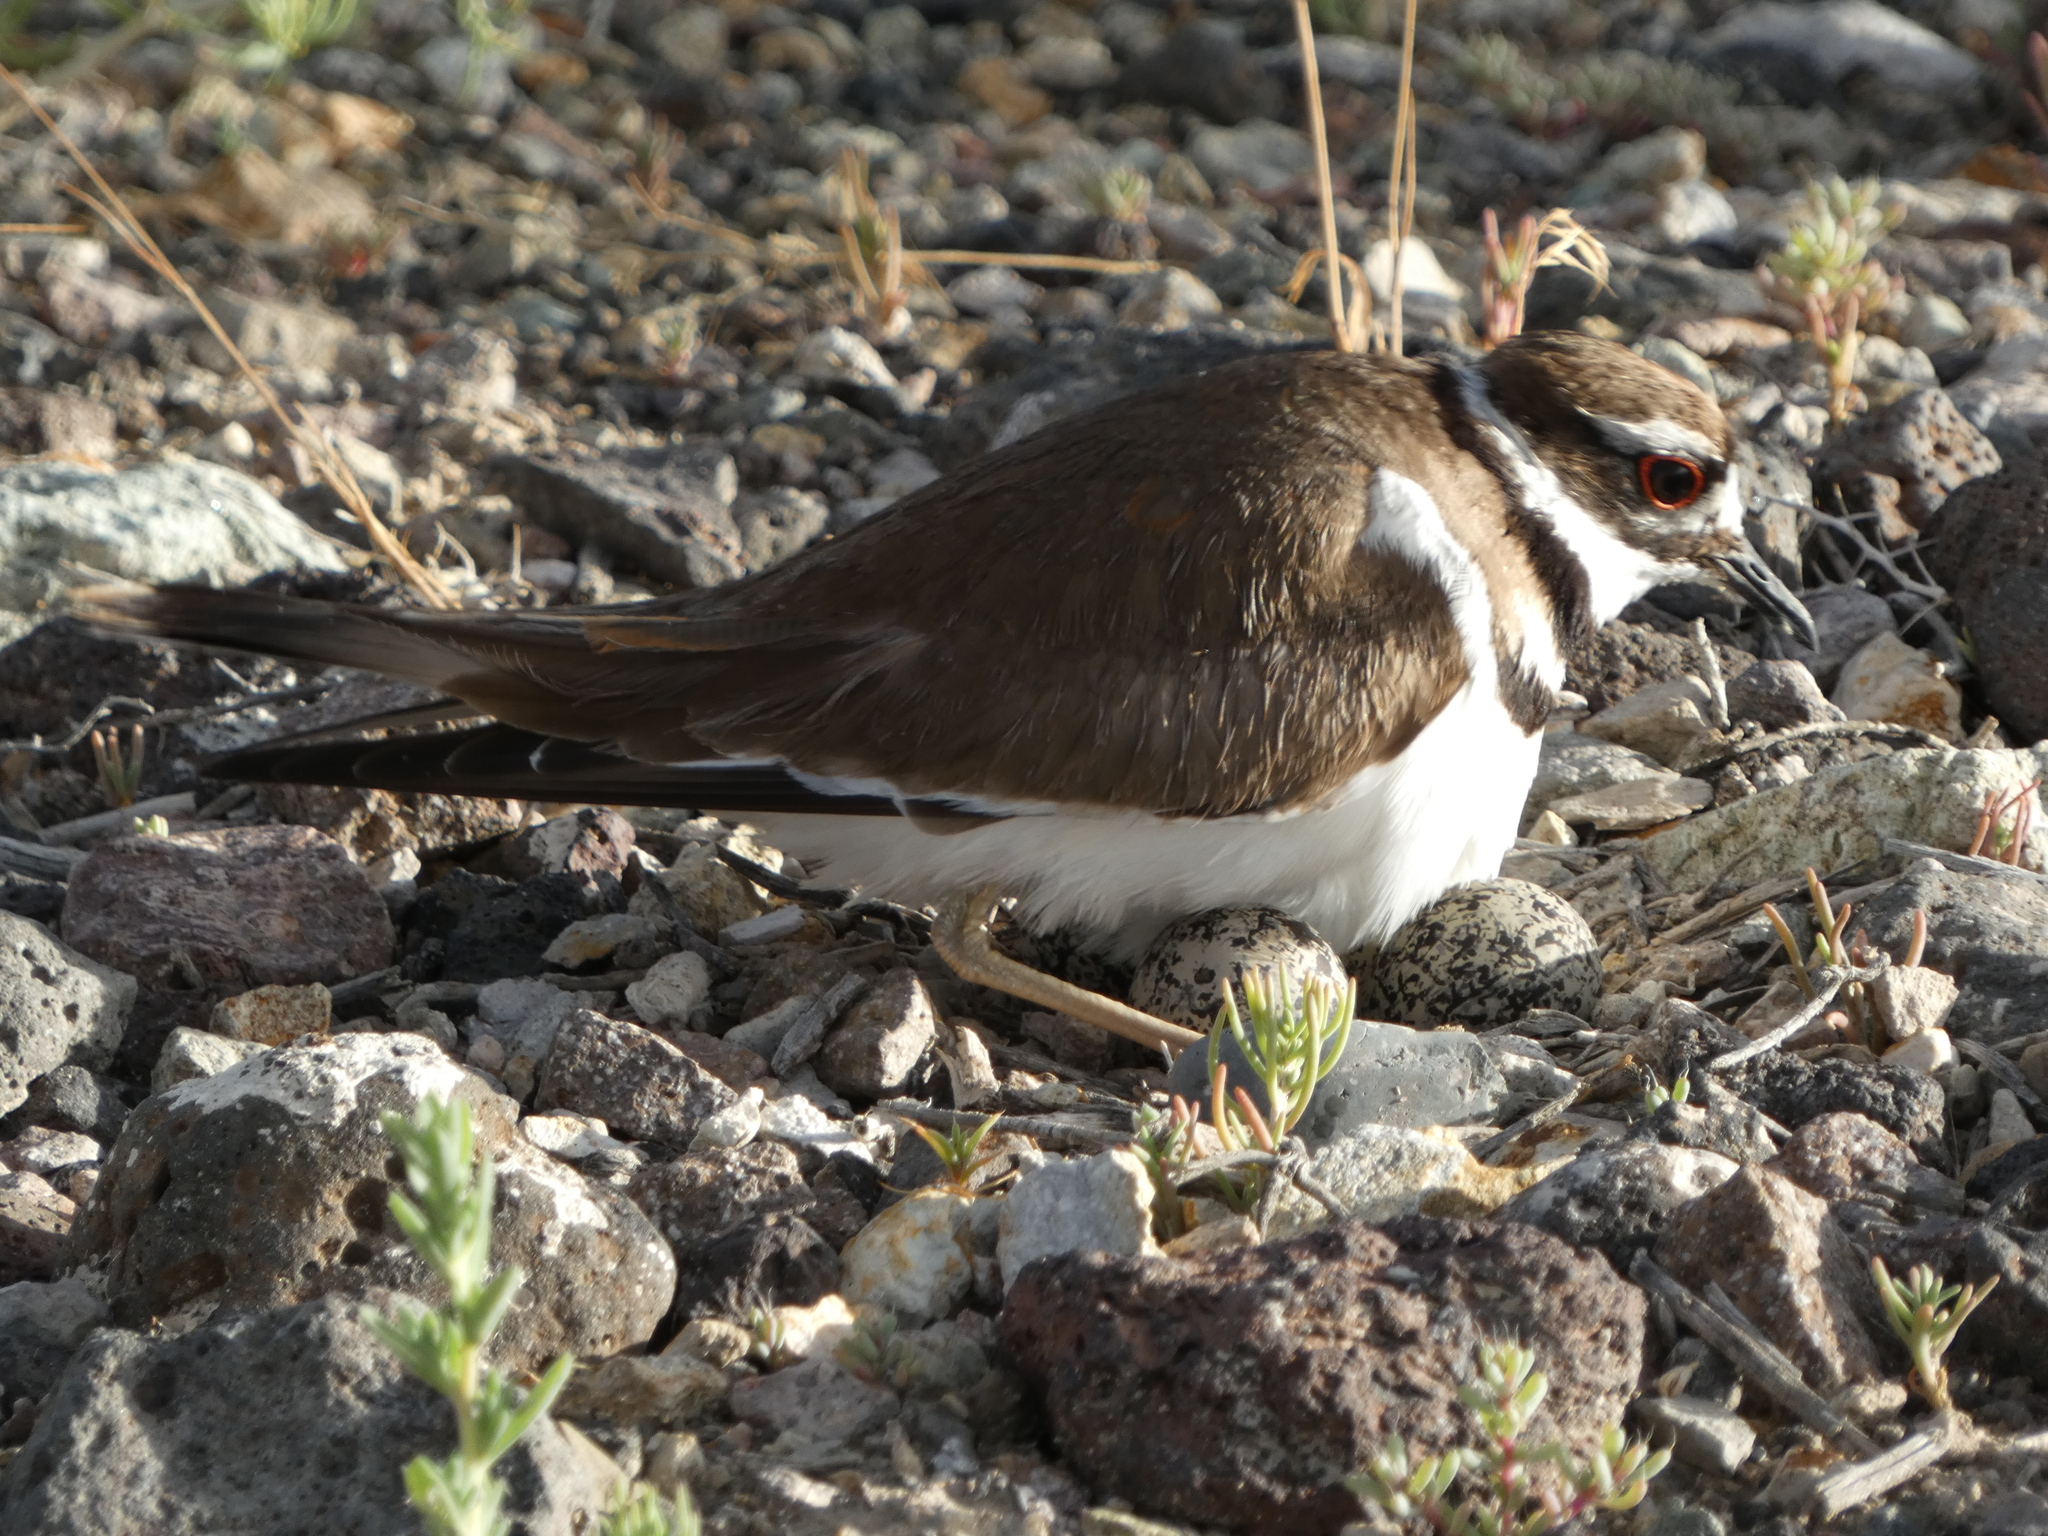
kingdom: Animalia
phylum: Chordata
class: Aves
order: Charadriiformes
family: Charadriidae
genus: Charadrius
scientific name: Charadrius vociferus
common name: Killdeer
